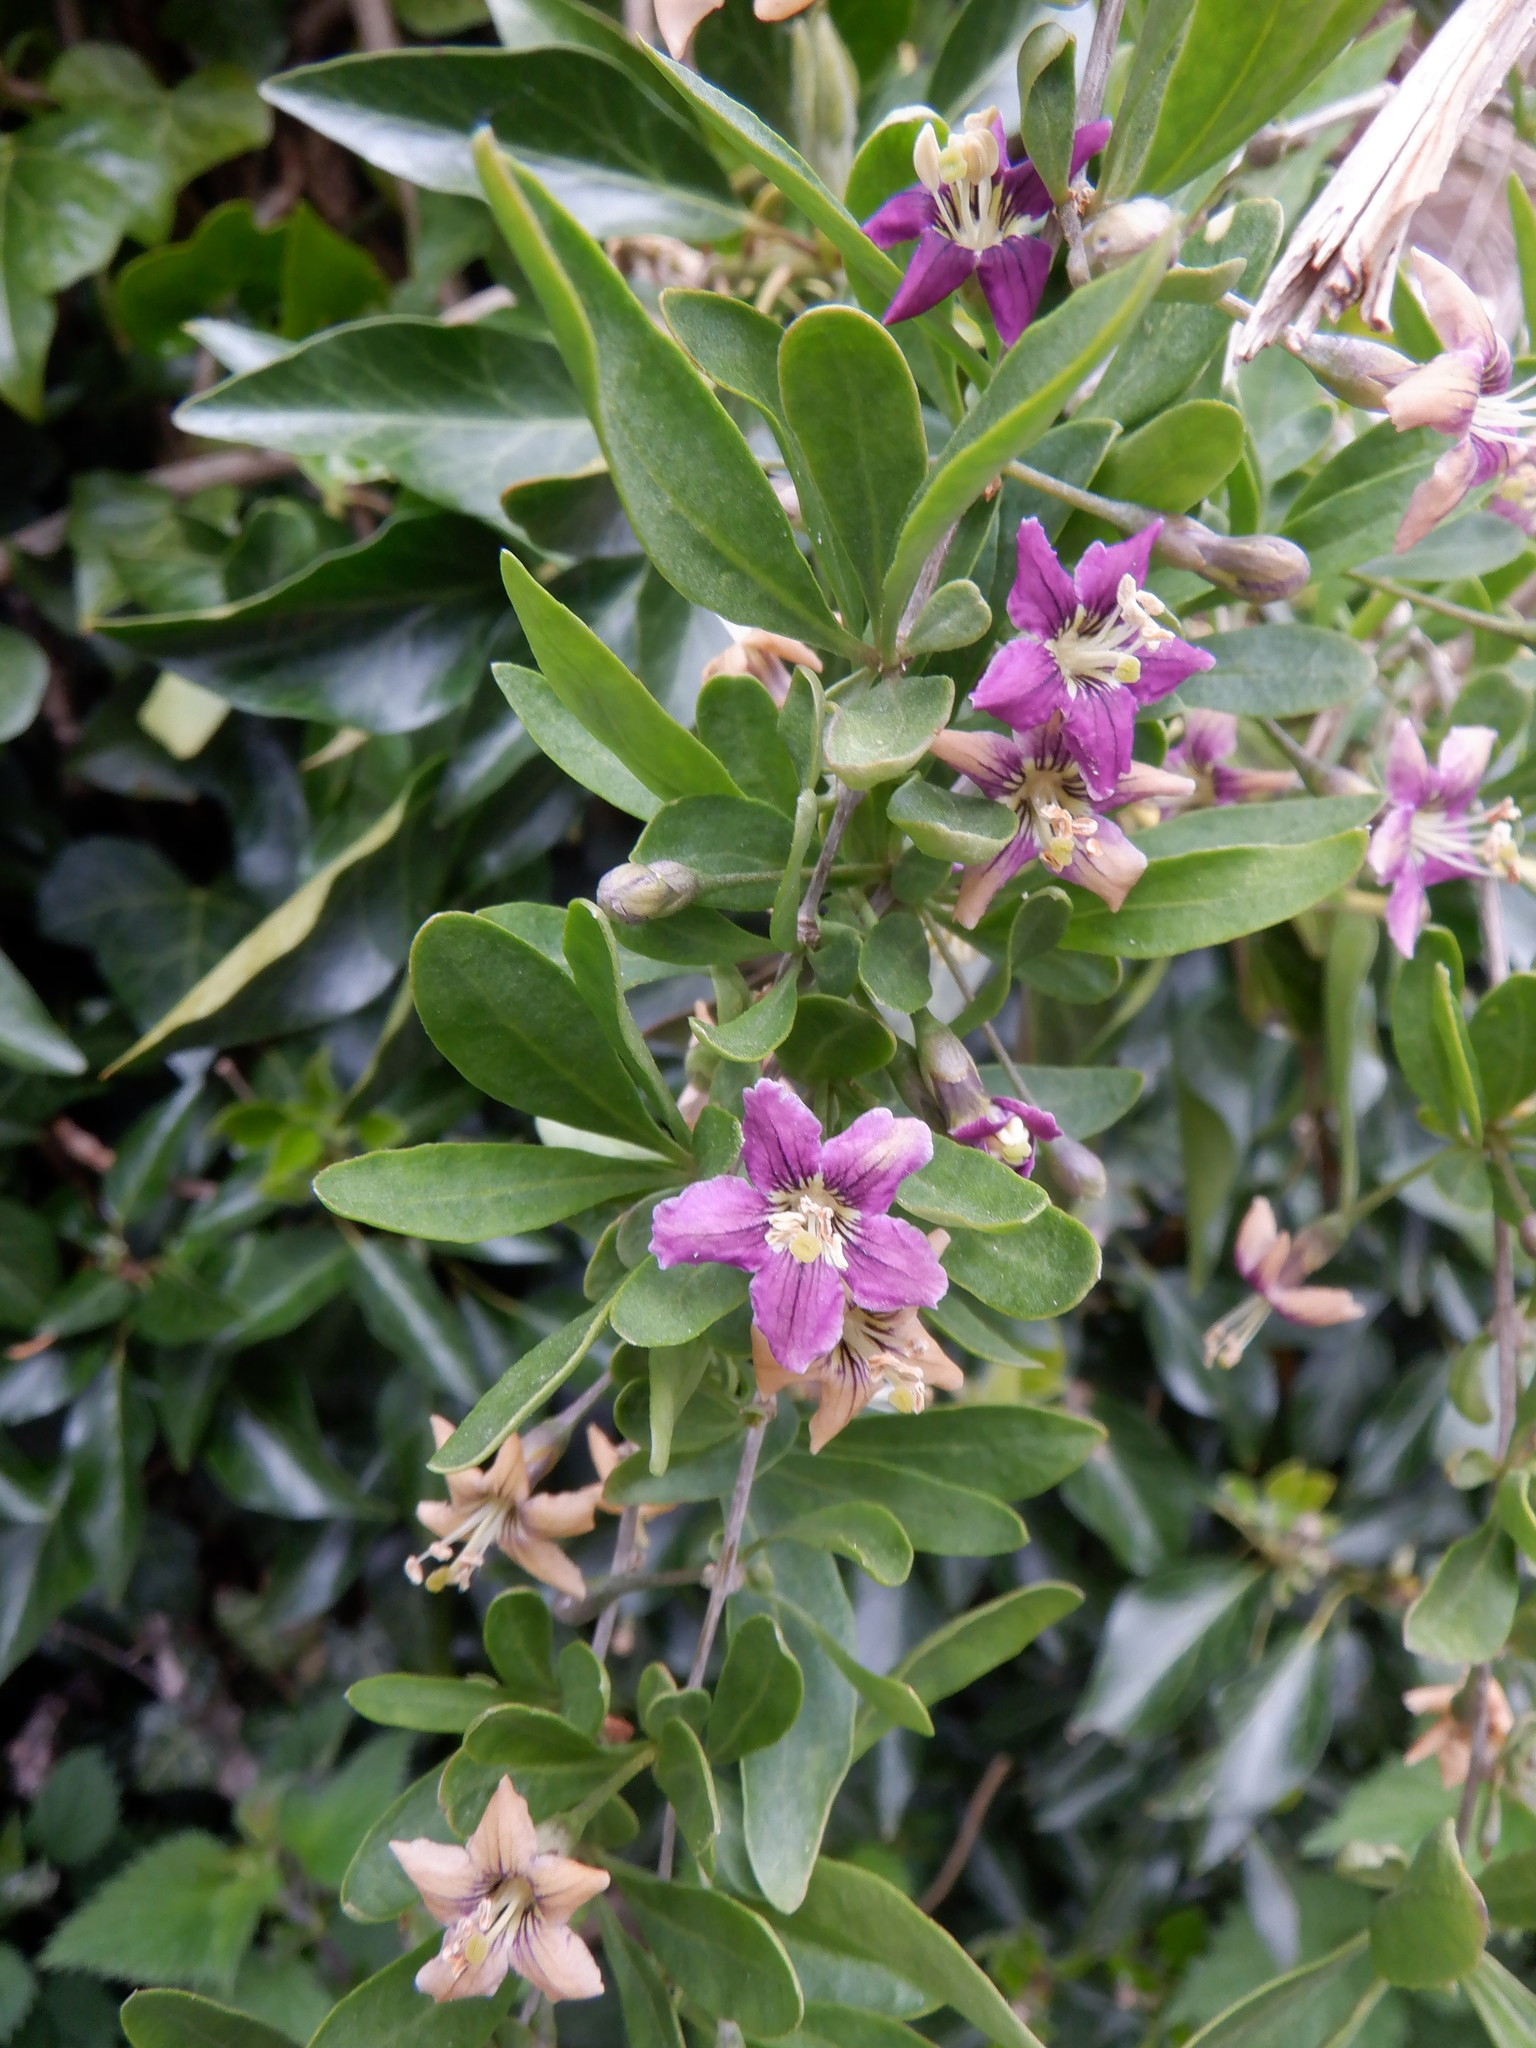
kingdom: Plantae
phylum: Tracheophyta
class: Magnoliopsida
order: Solanales
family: Solanaceae
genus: Lycium
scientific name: Lycium barbarum
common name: Duke of argyll's teaplant
